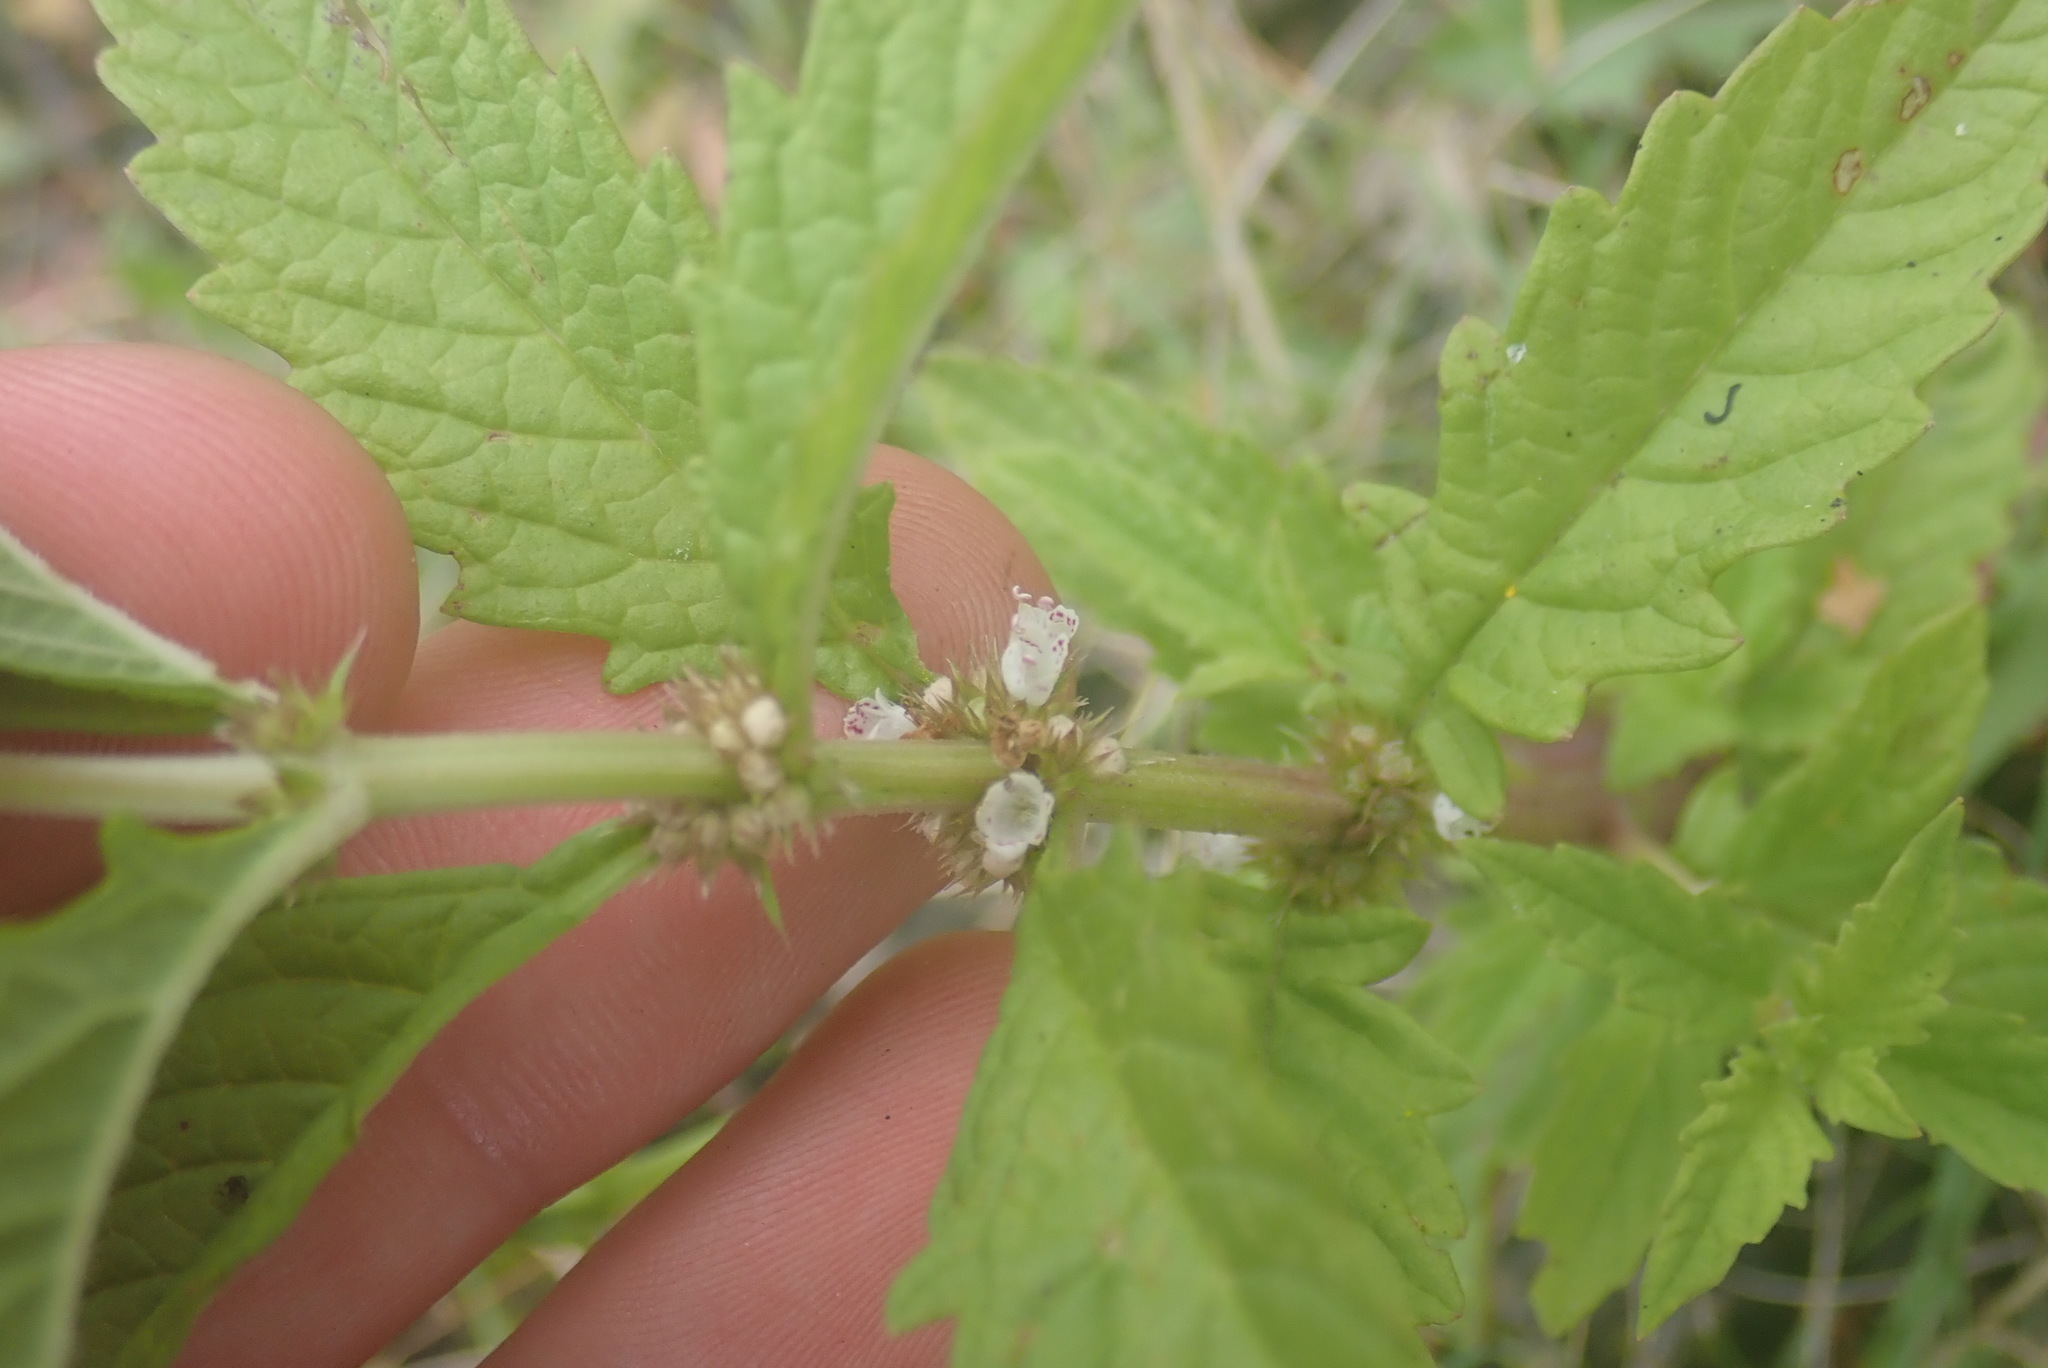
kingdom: Plantae
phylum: Tracheophyta
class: Magnoliopsida
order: Lamiales
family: Lamiaceae
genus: Lycopus
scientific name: Lycopus europaeus
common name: European bugleweed
